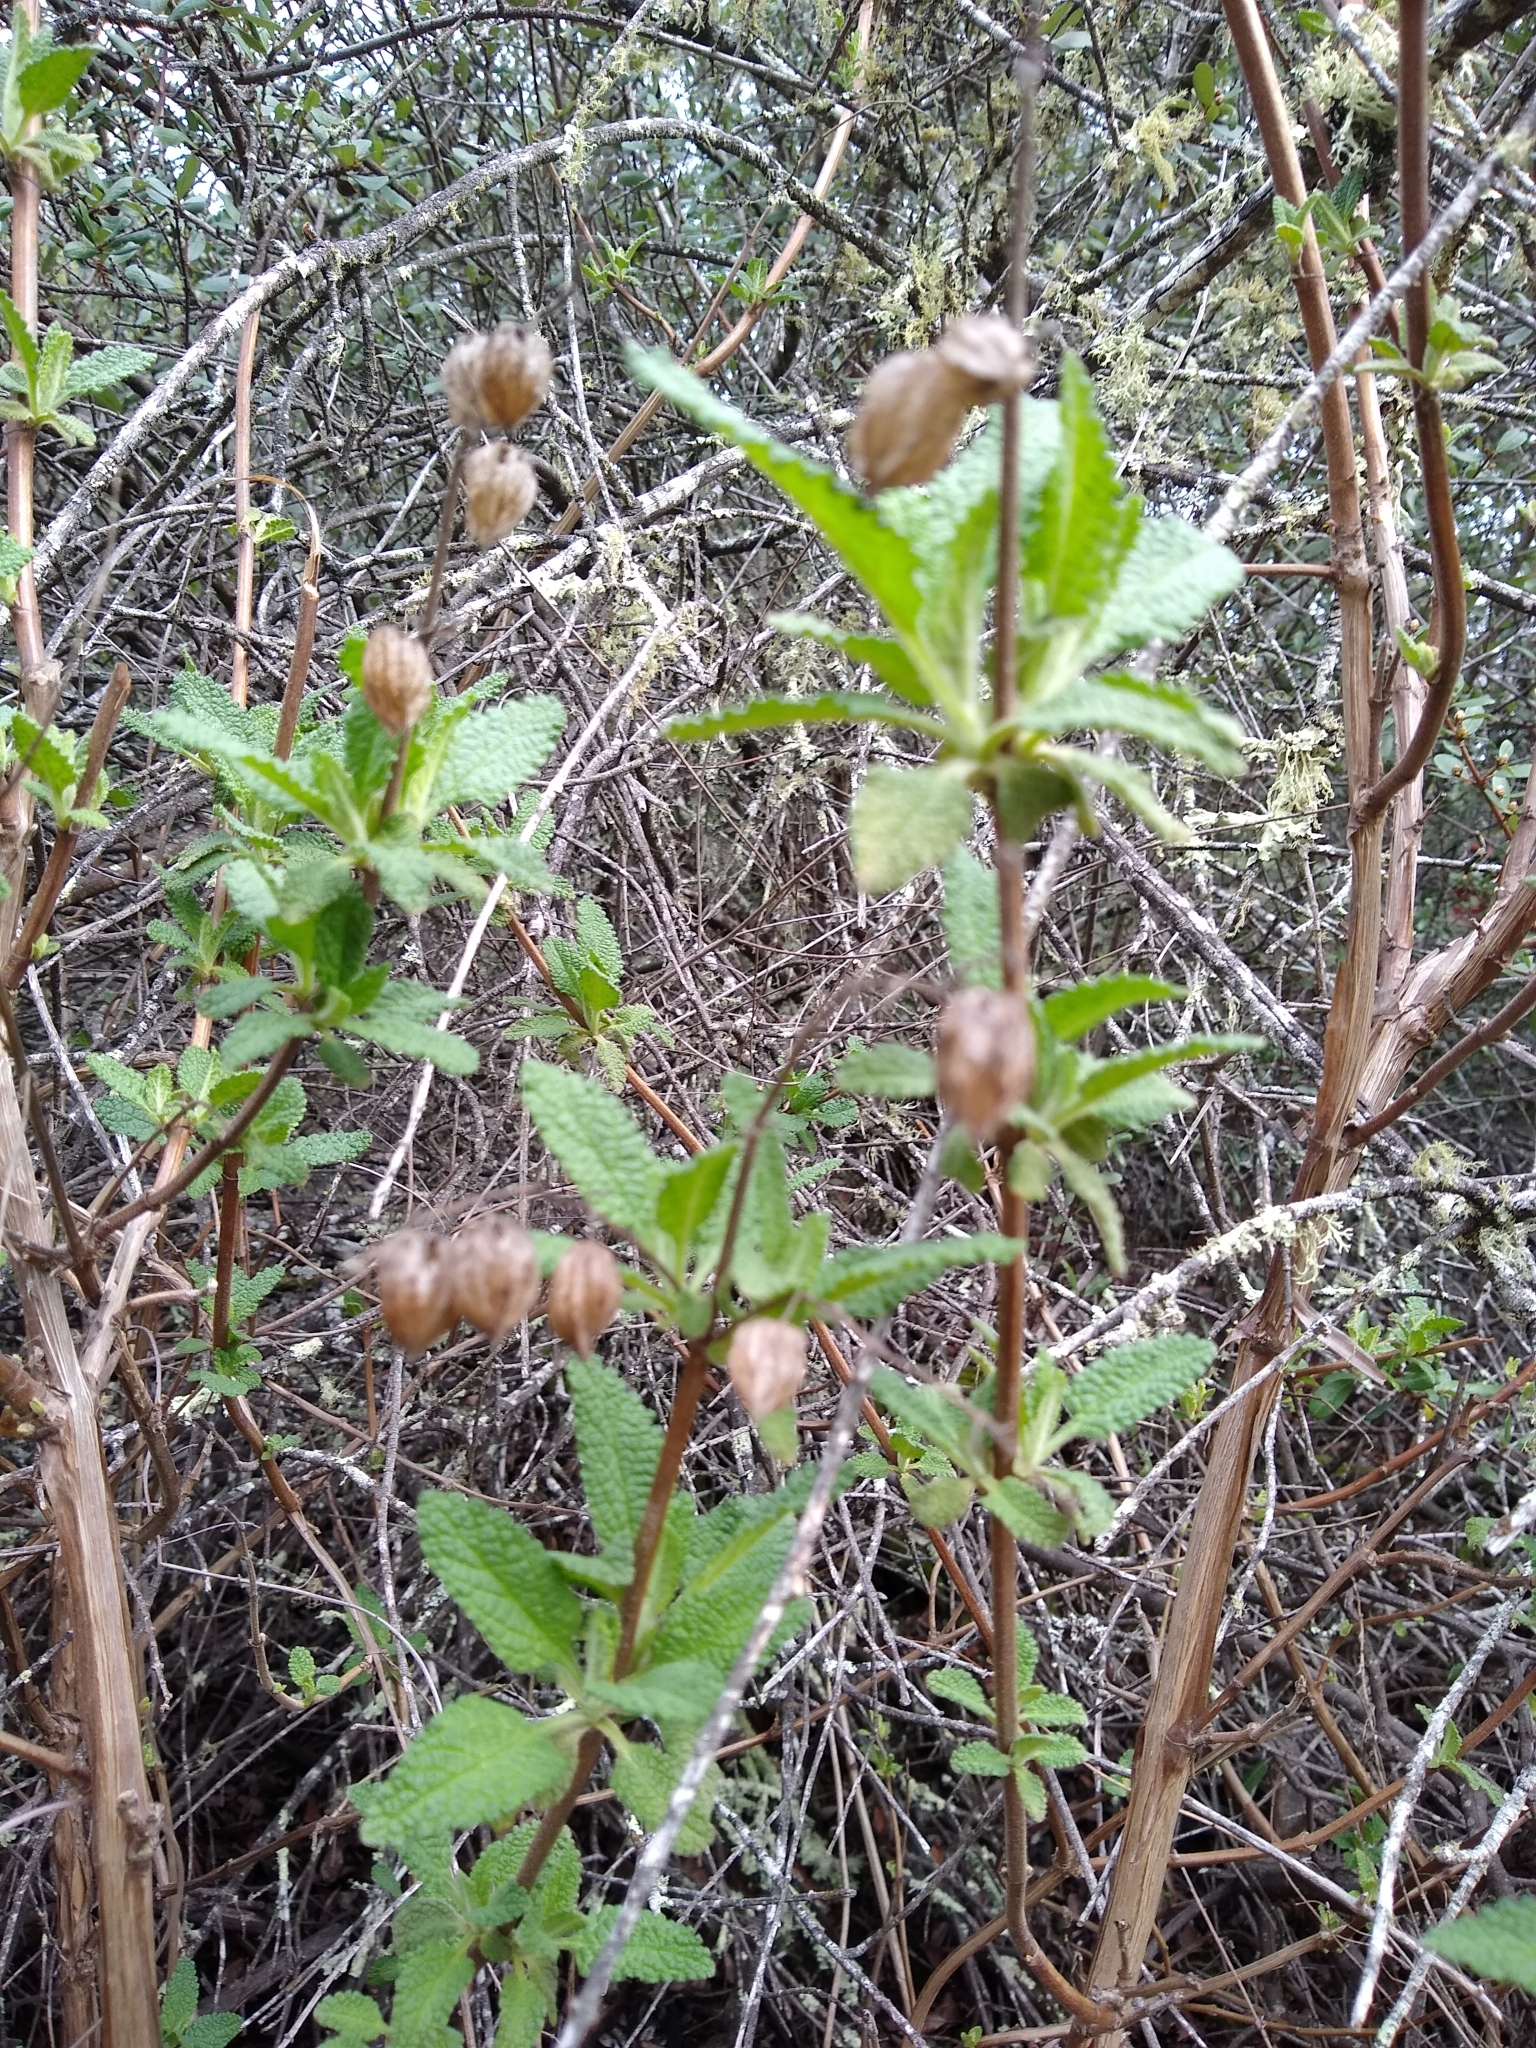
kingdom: Plantae
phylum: Tracheophyta
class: Magnoliopsida
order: Lamiales
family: Lamiaceae
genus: Lepechinia
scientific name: Lepechinia calycina
